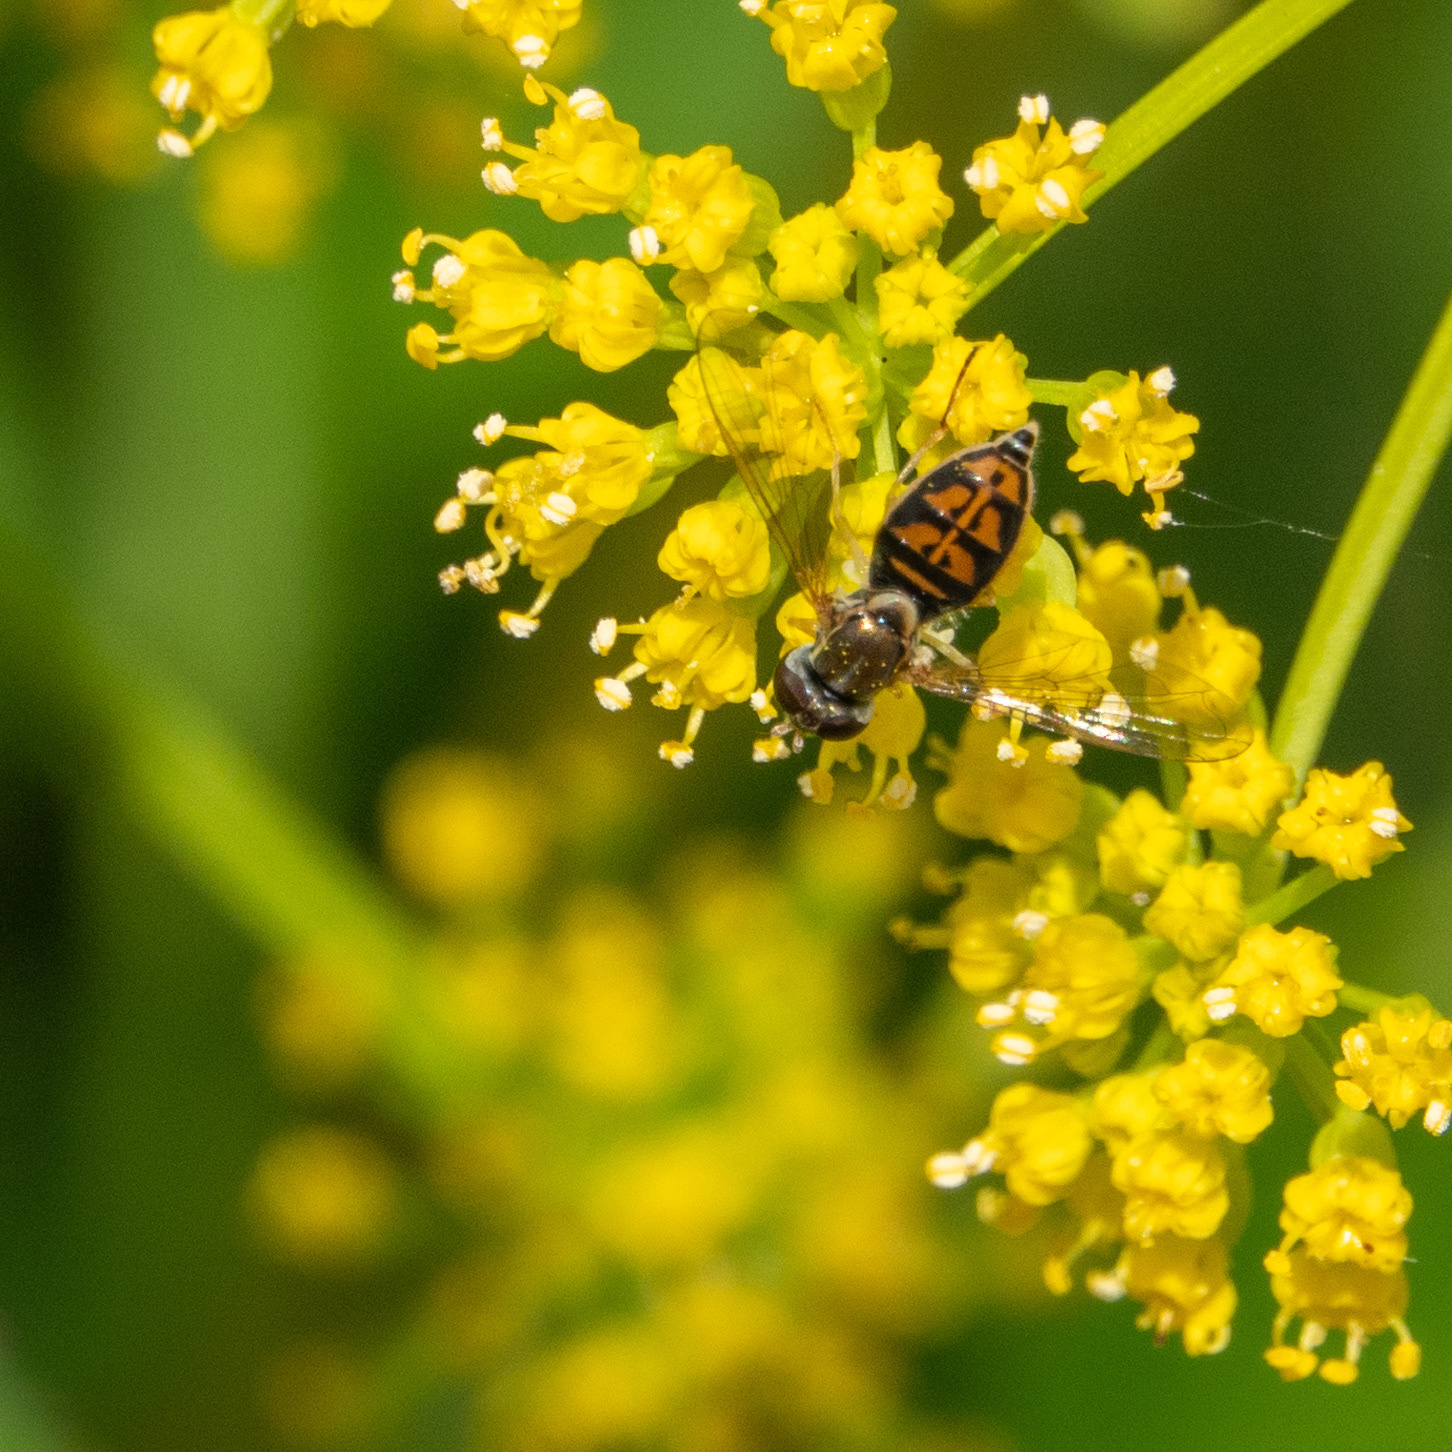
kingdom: Animalia
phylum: Arthropoda
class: Insecta
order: Diptera
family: Syrphidae
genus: Toxomerus
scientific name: Toxomerus marginatus
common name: Syrphid fly
